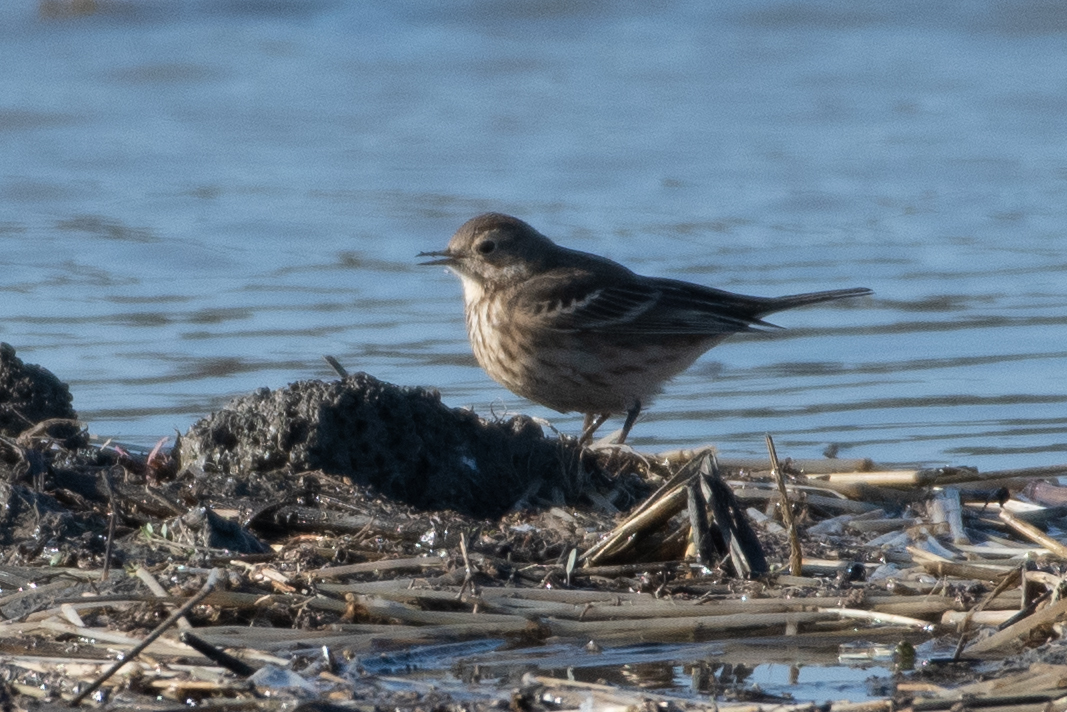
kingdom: Animalia
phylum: Chordata
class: Aves
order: Passeriformes
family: Motacillidae
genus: Anthus
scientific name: Anthus rubescens
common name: Buff-bellied pipit
